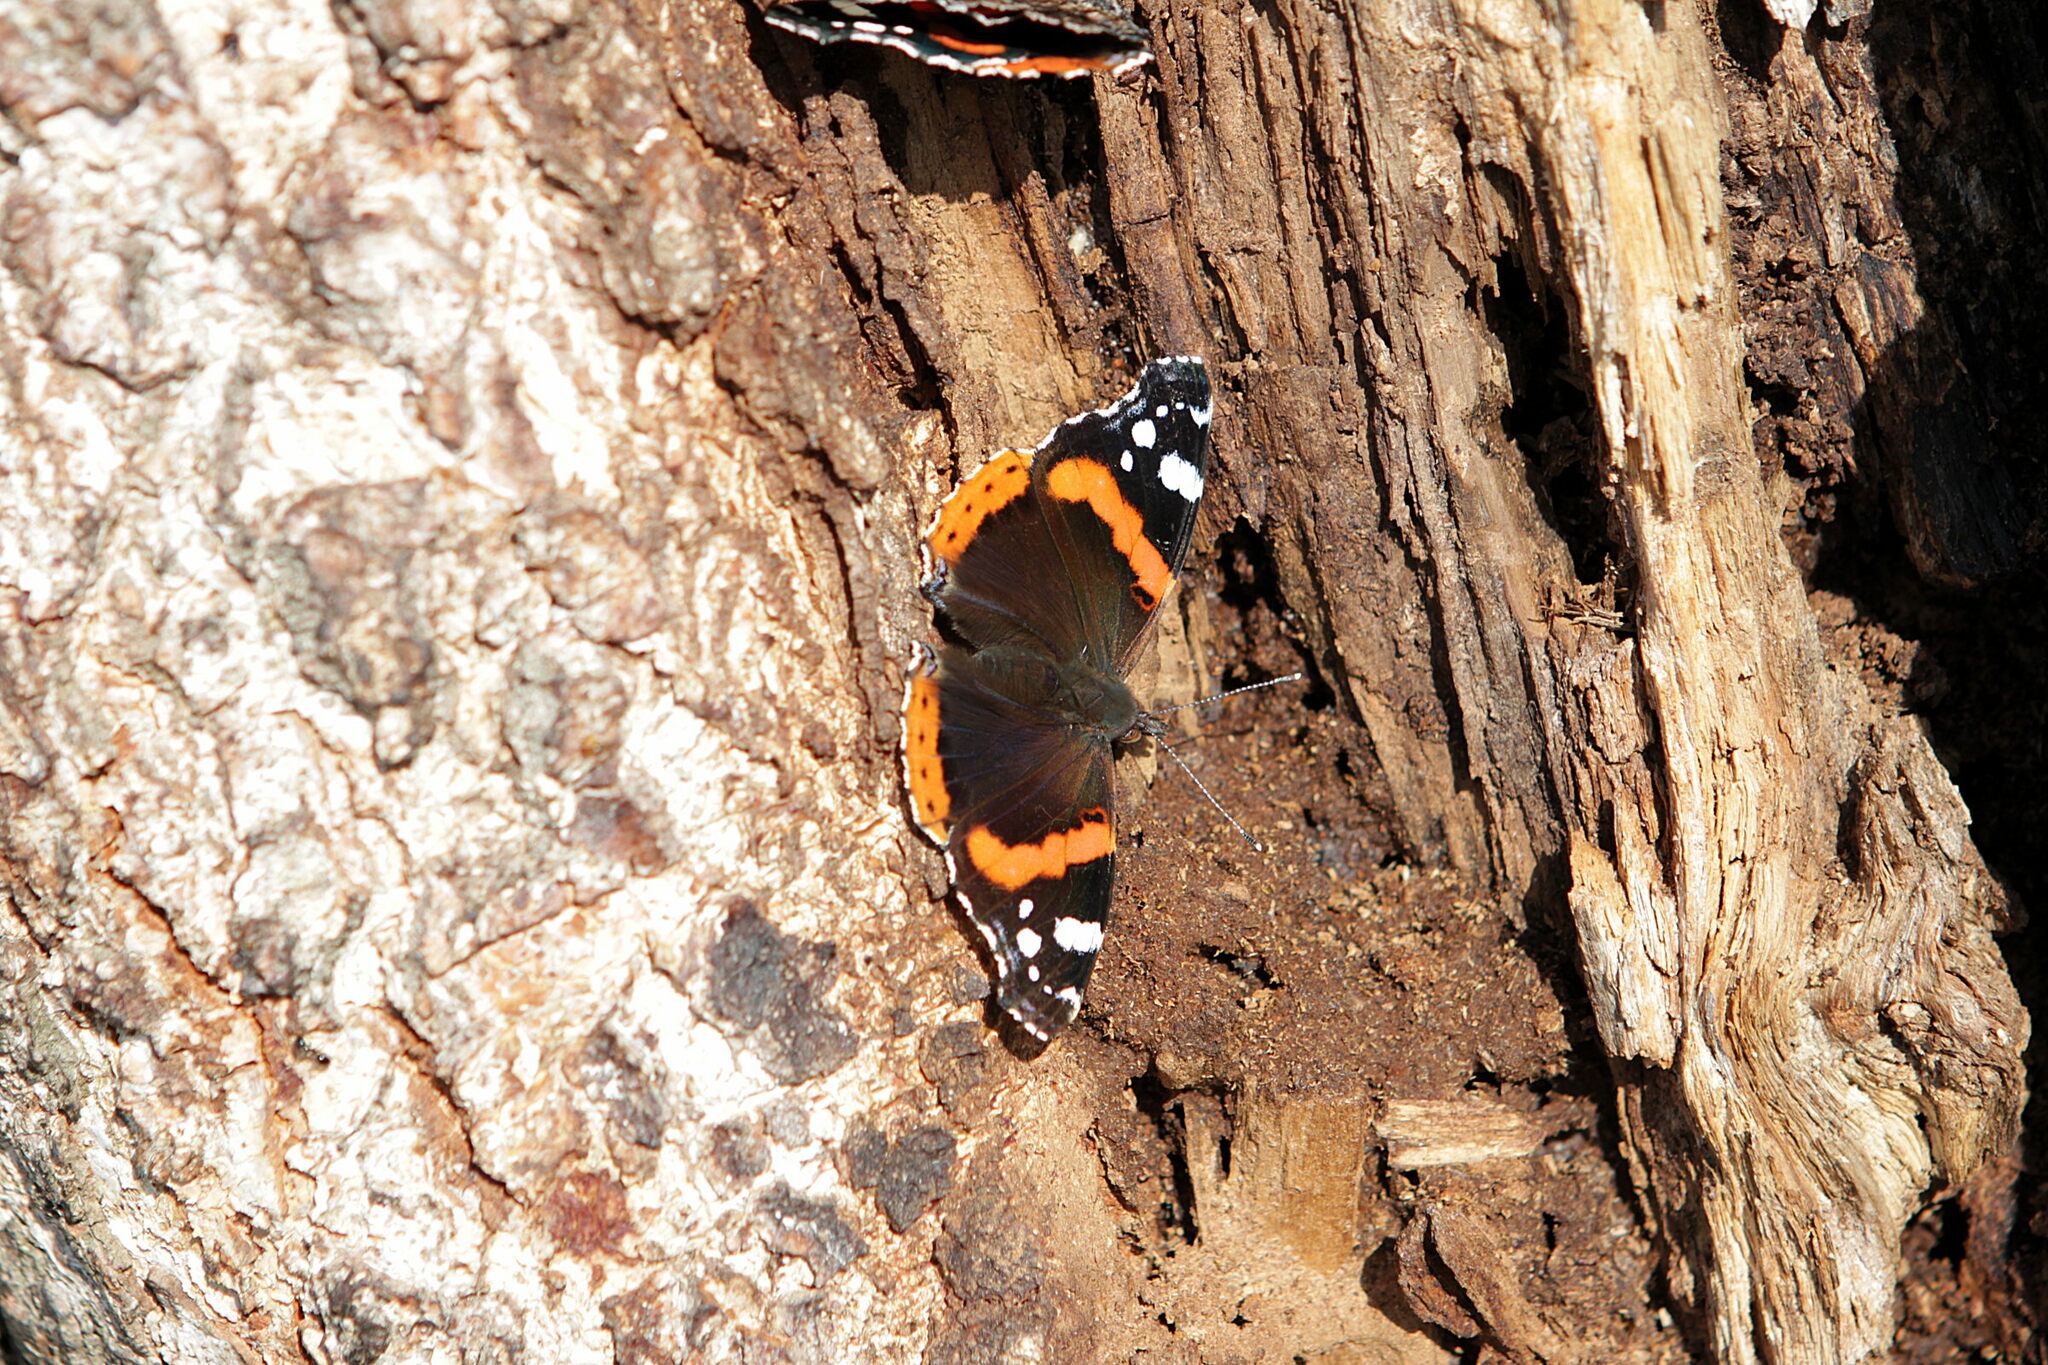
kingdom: Animalia
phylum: Arthropoda
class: Insecta
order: Lepidoptera
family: Nymphalidae
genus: Vanessa
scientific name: Vanessa atalanta
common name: Red admiral
